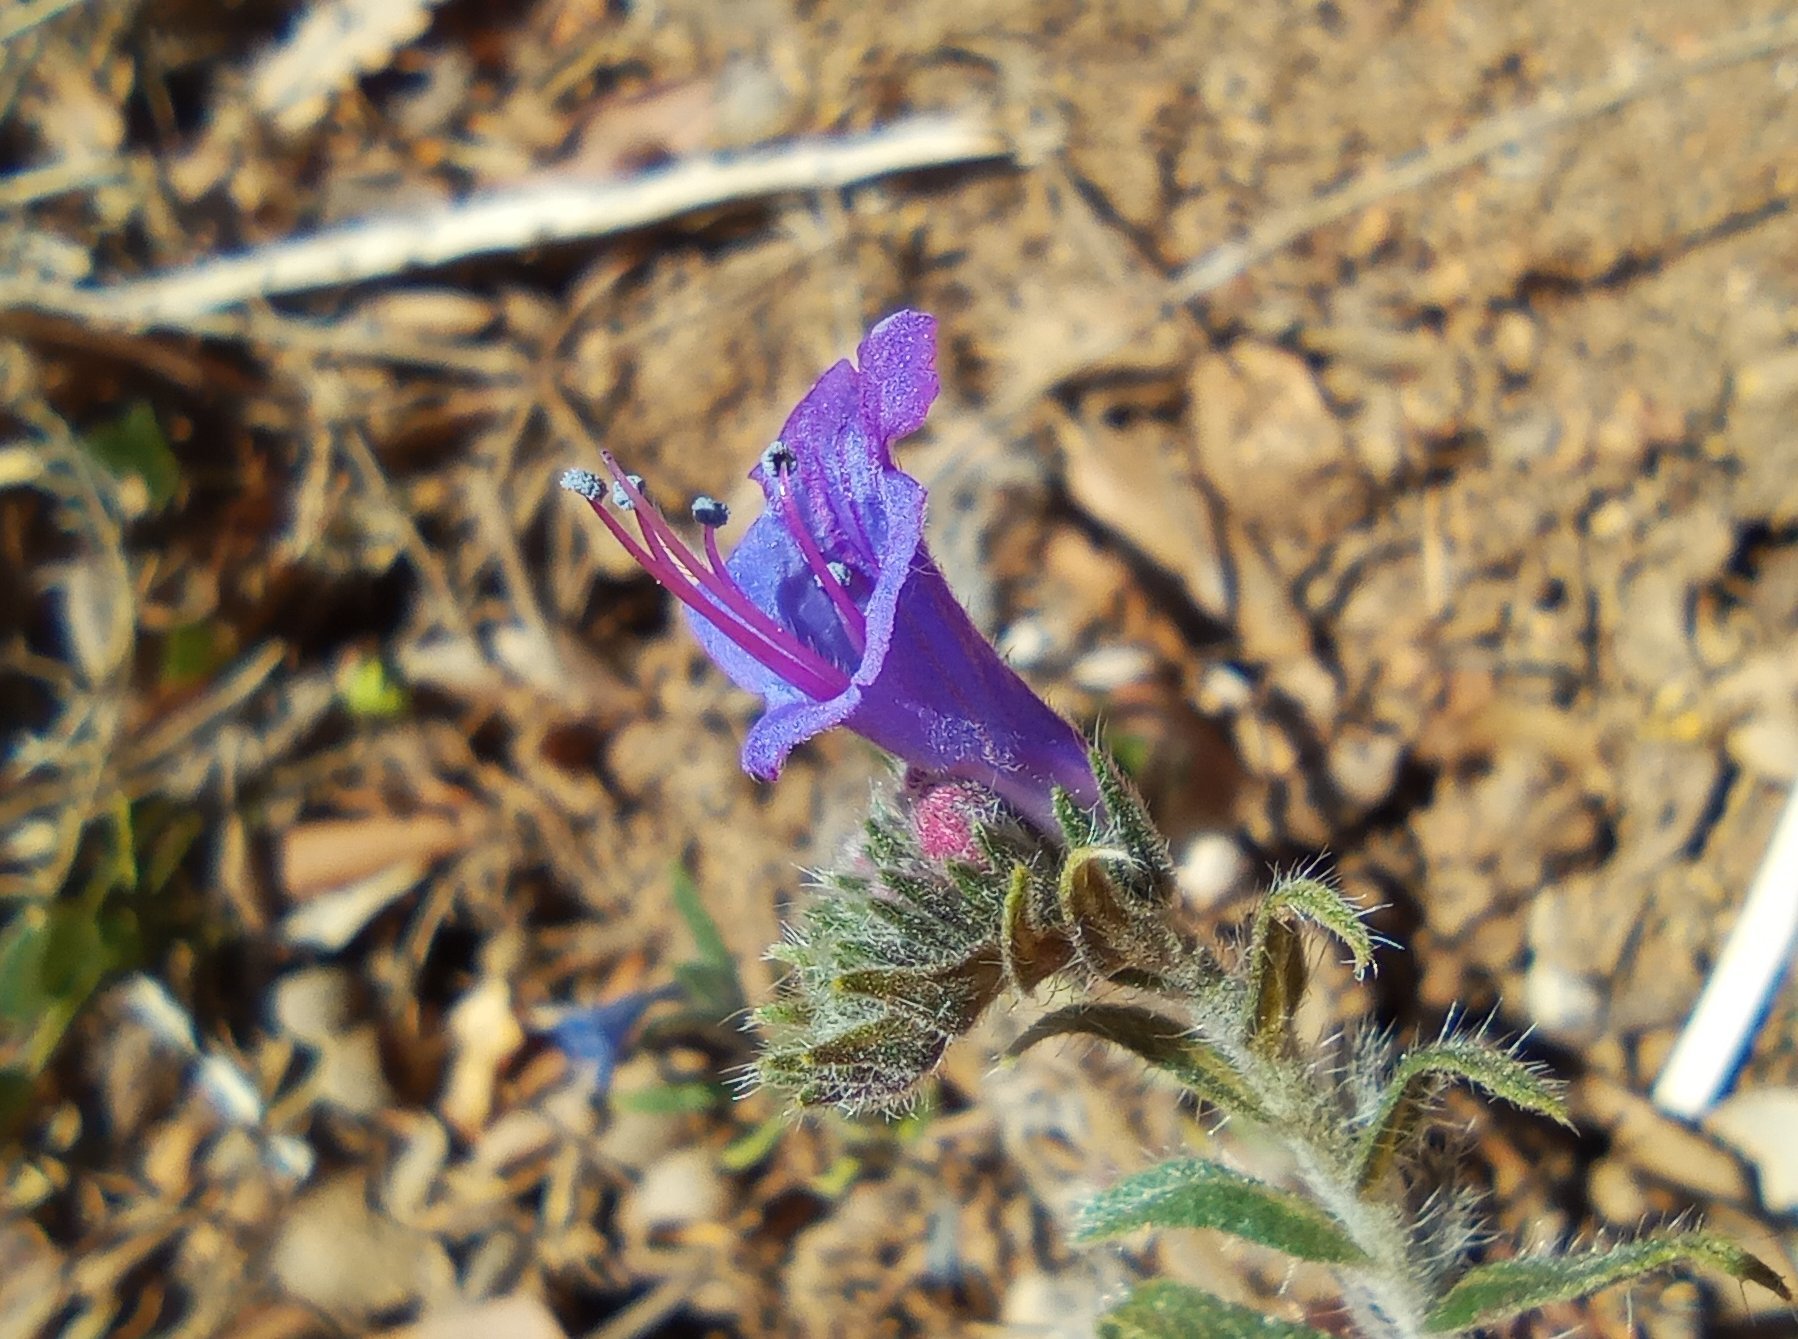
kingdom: Plantae
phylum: Tracheophyta
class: Magnoliopsida
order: Boraginales
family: Boraginaceae
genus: Echium
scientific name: Echium vulgare
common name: Common viper's bugloss
